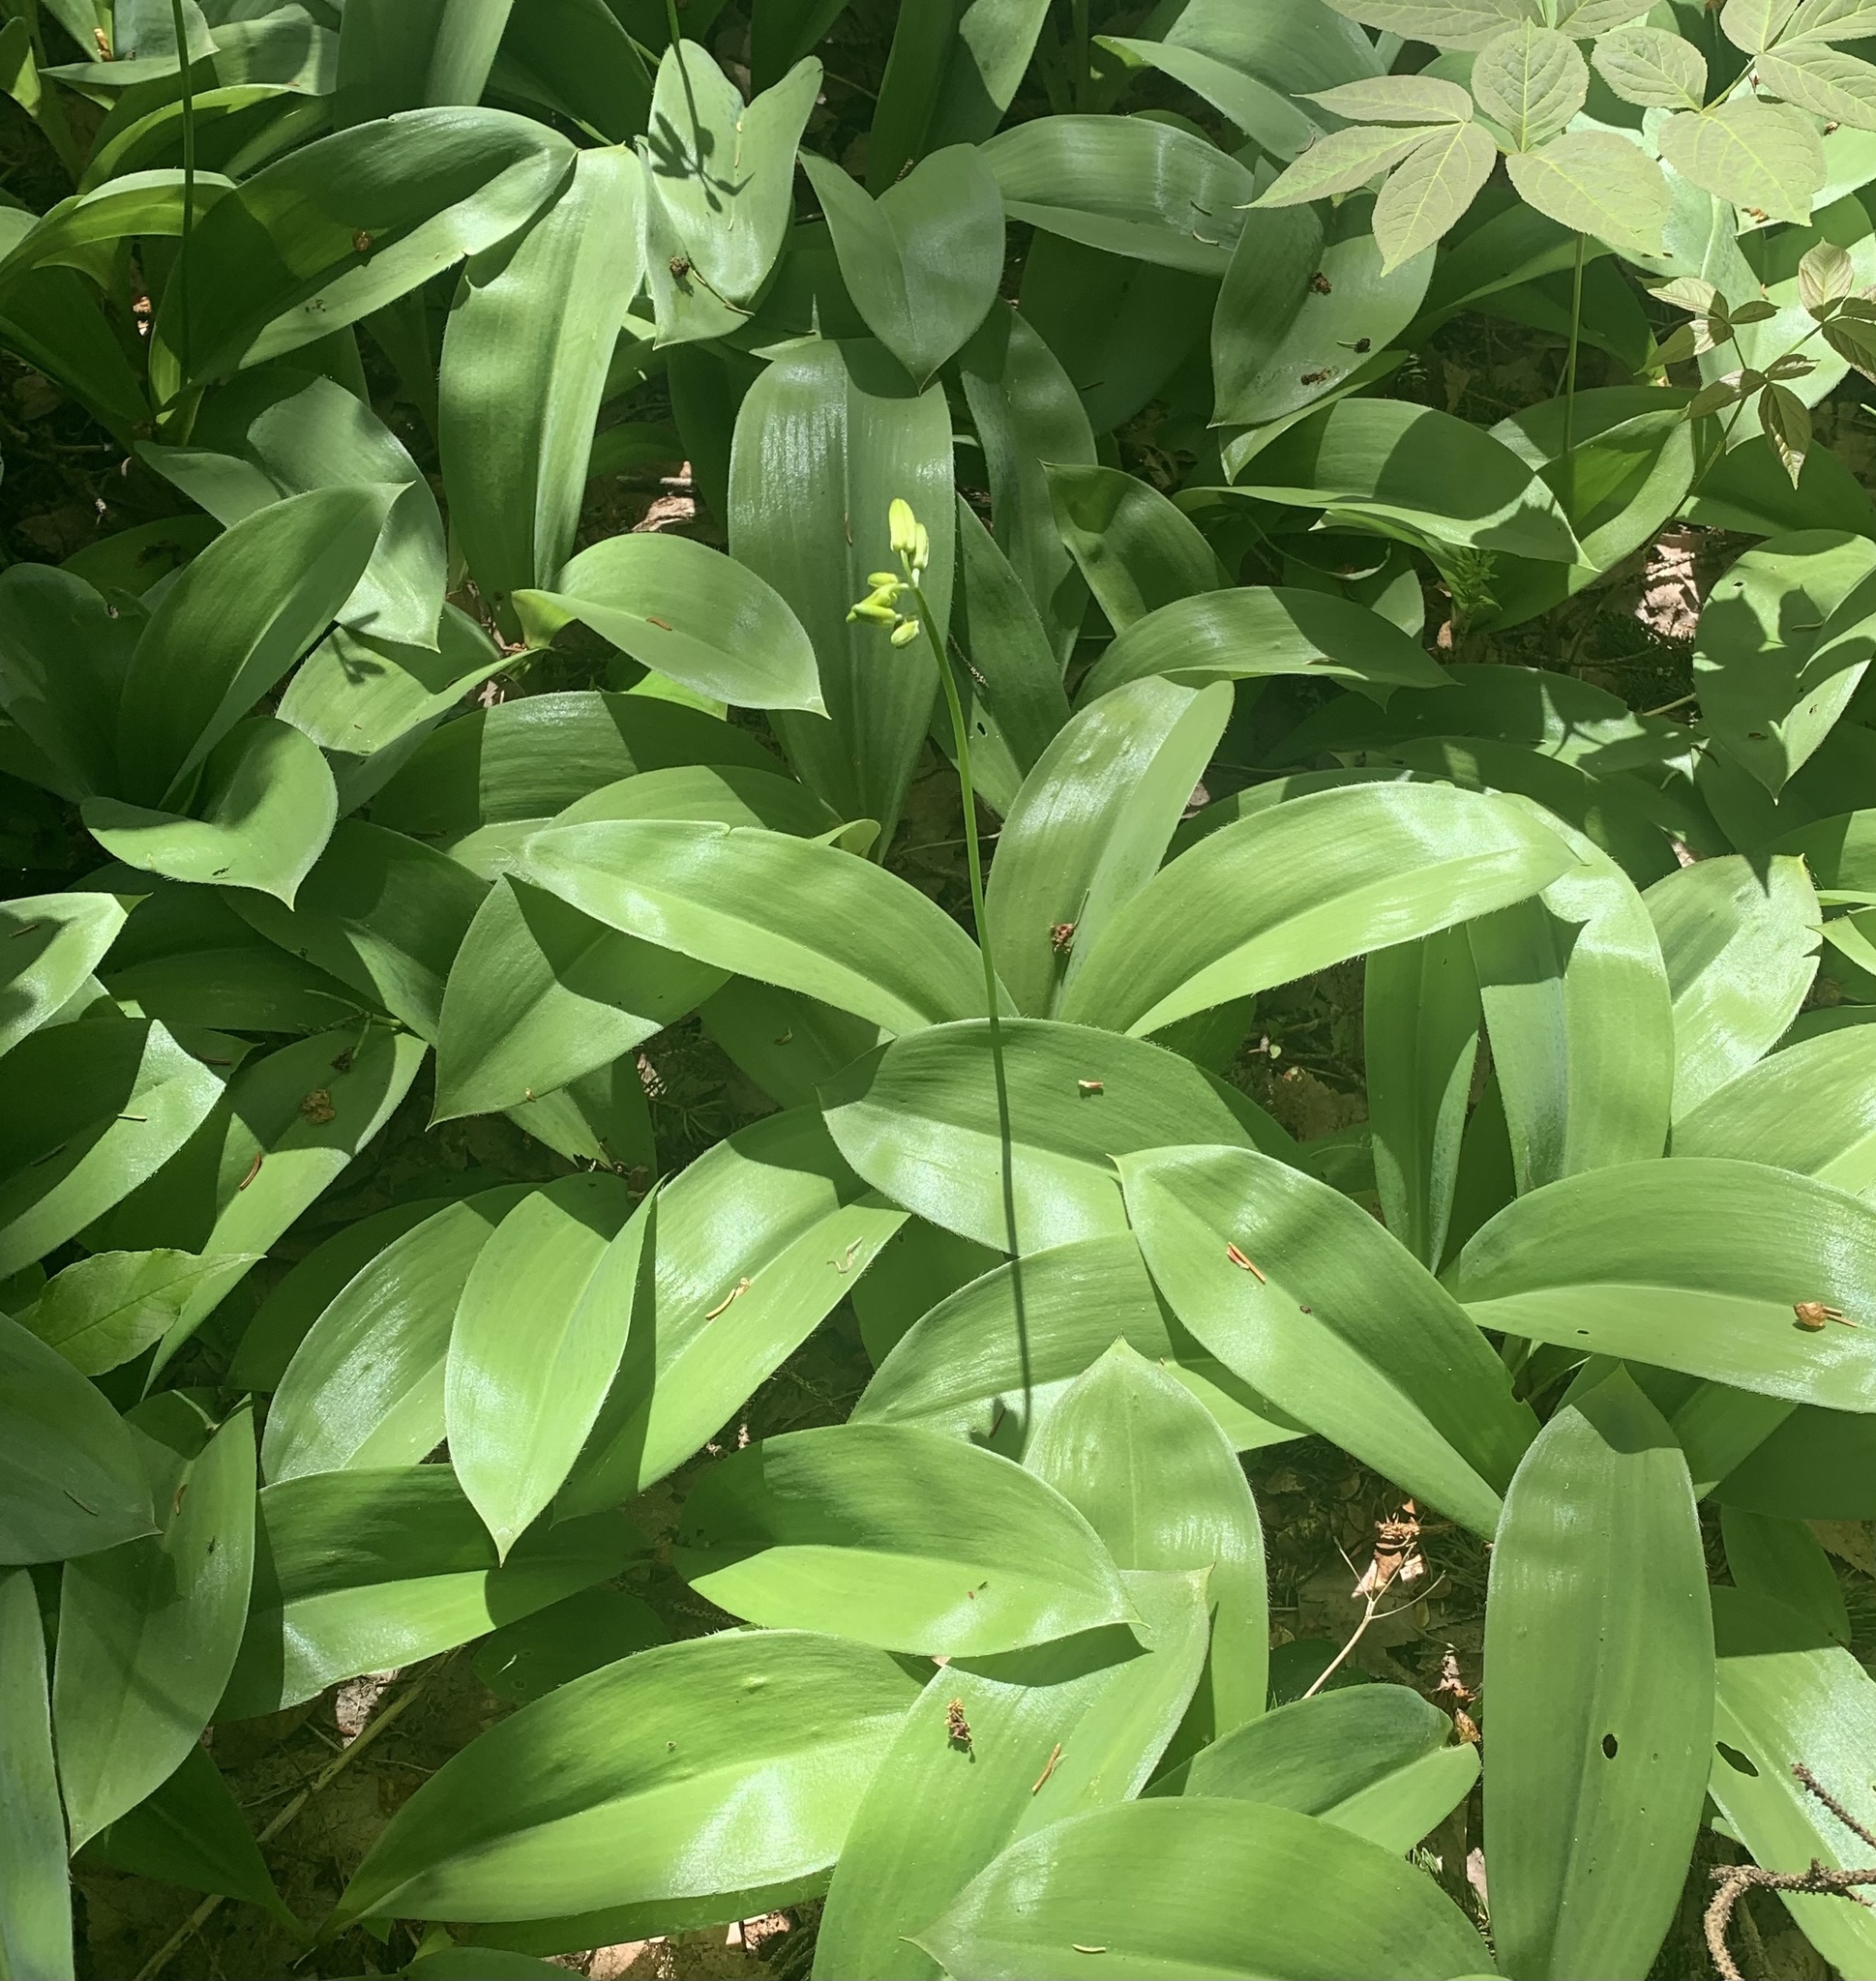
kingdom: Plantae
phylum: Tracheophyta
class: Liliopsida
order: Liliales
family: Liliaceae
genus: Clintonia
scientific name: Clintonia borealis
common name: Yellow clintonia
